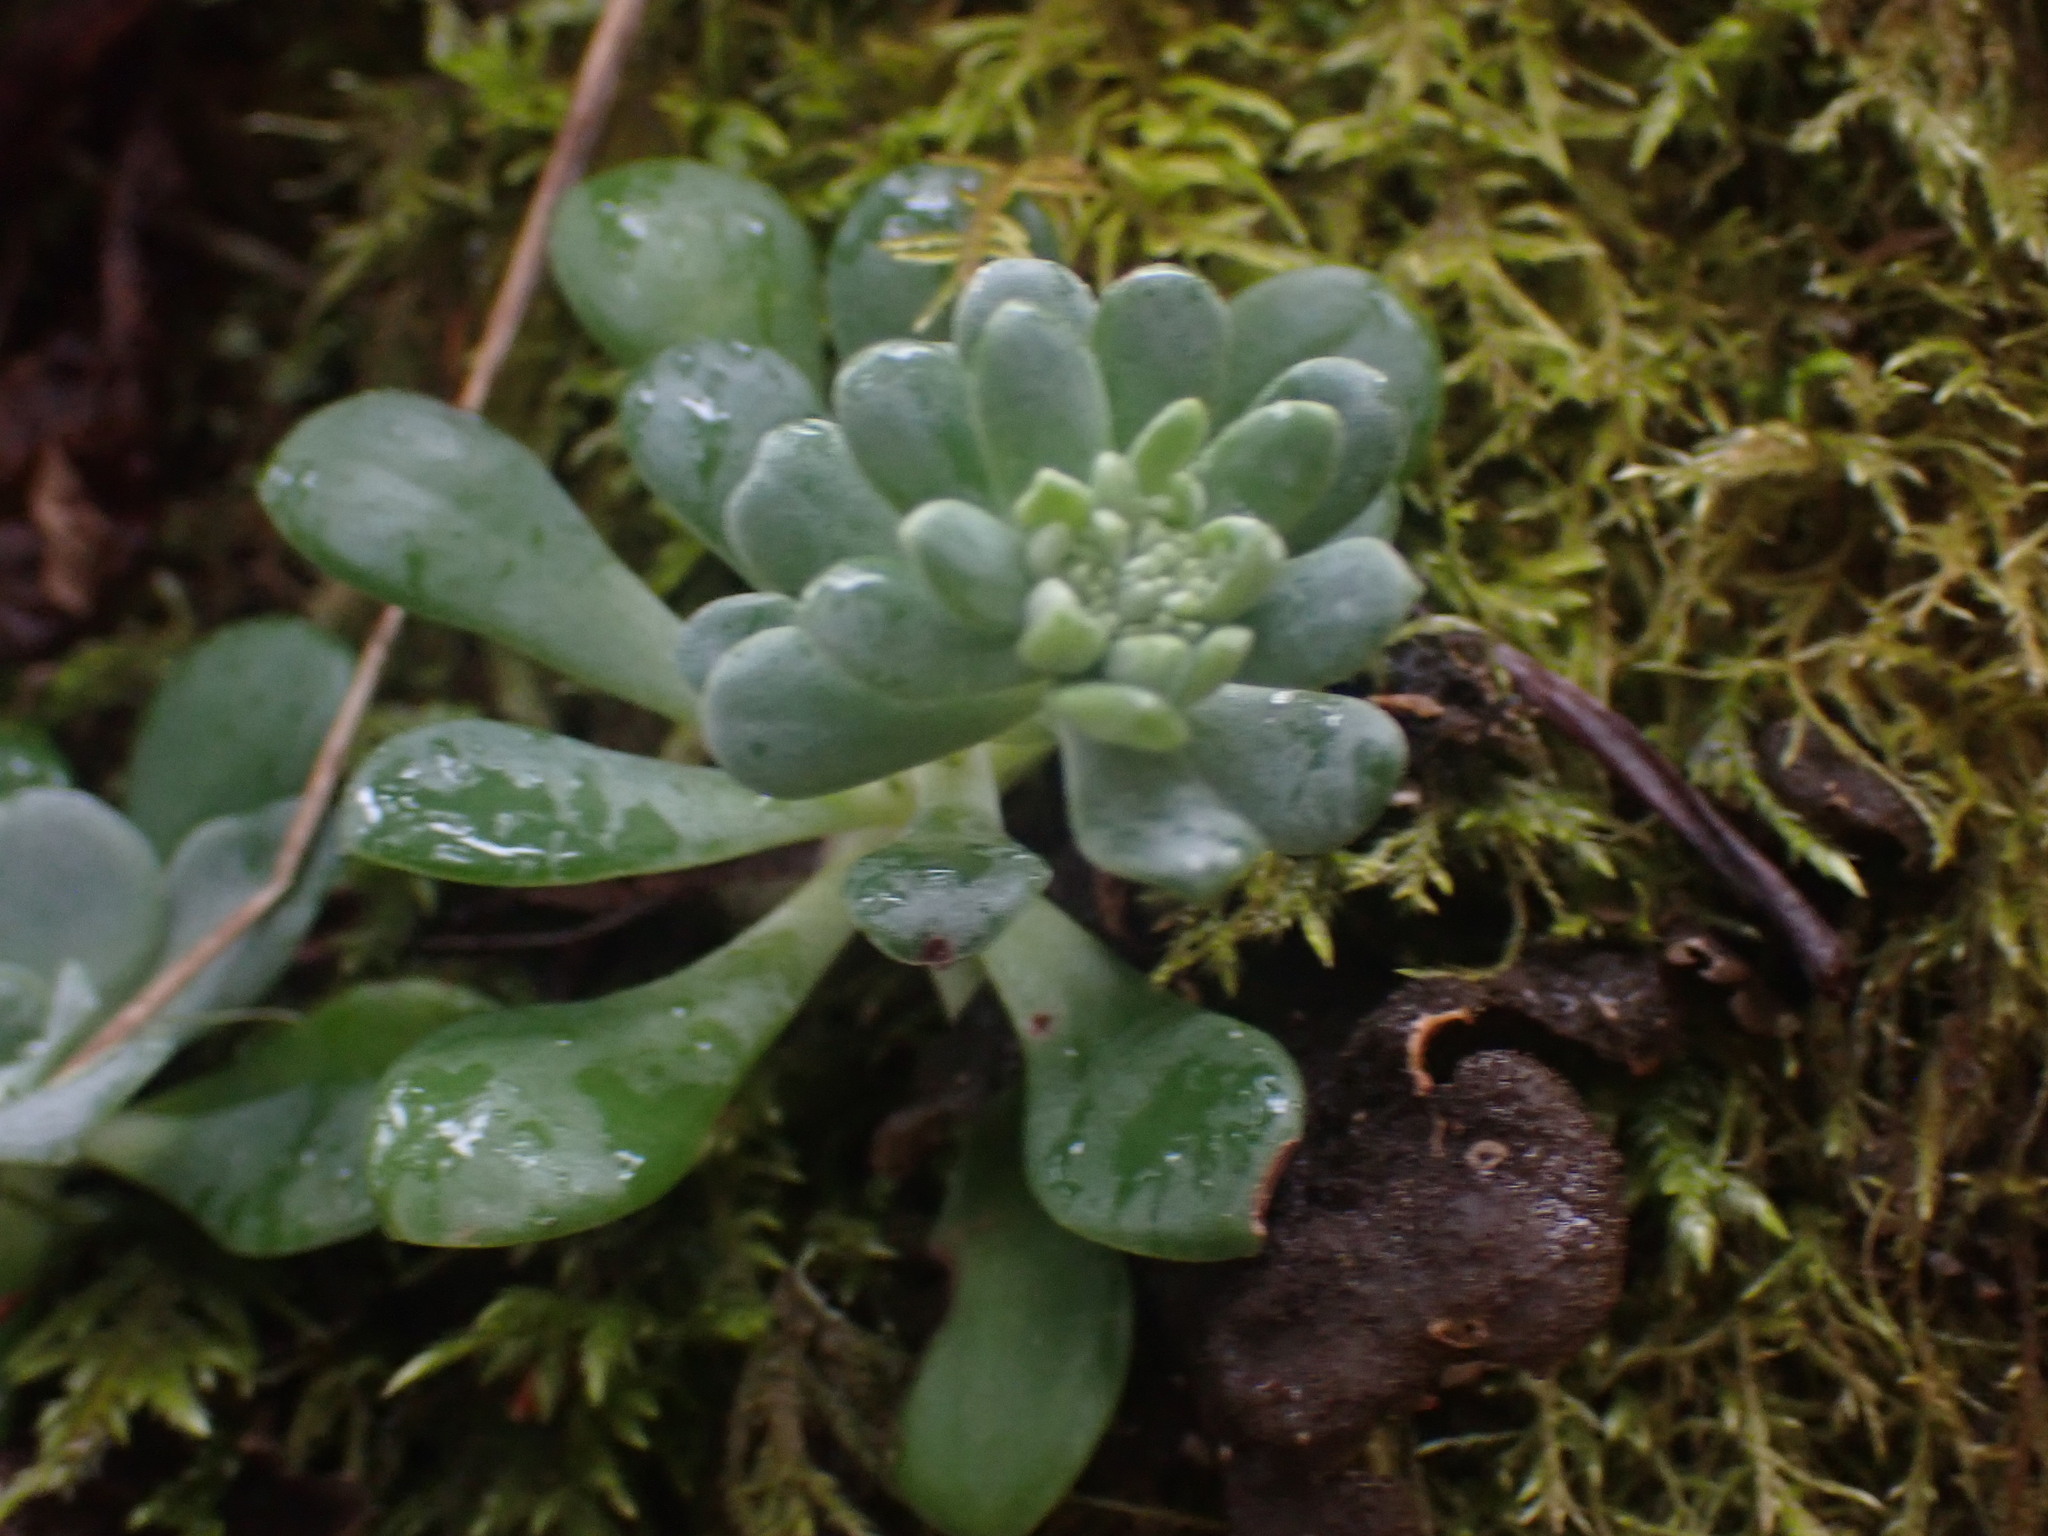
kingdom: Plantae
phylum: Tracheophyta
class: Magnoliopsida
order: Saxifragales
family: Crassulaceae
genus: Sedum
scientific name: Sedum spathulifolium
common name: Colorado stonecrop
